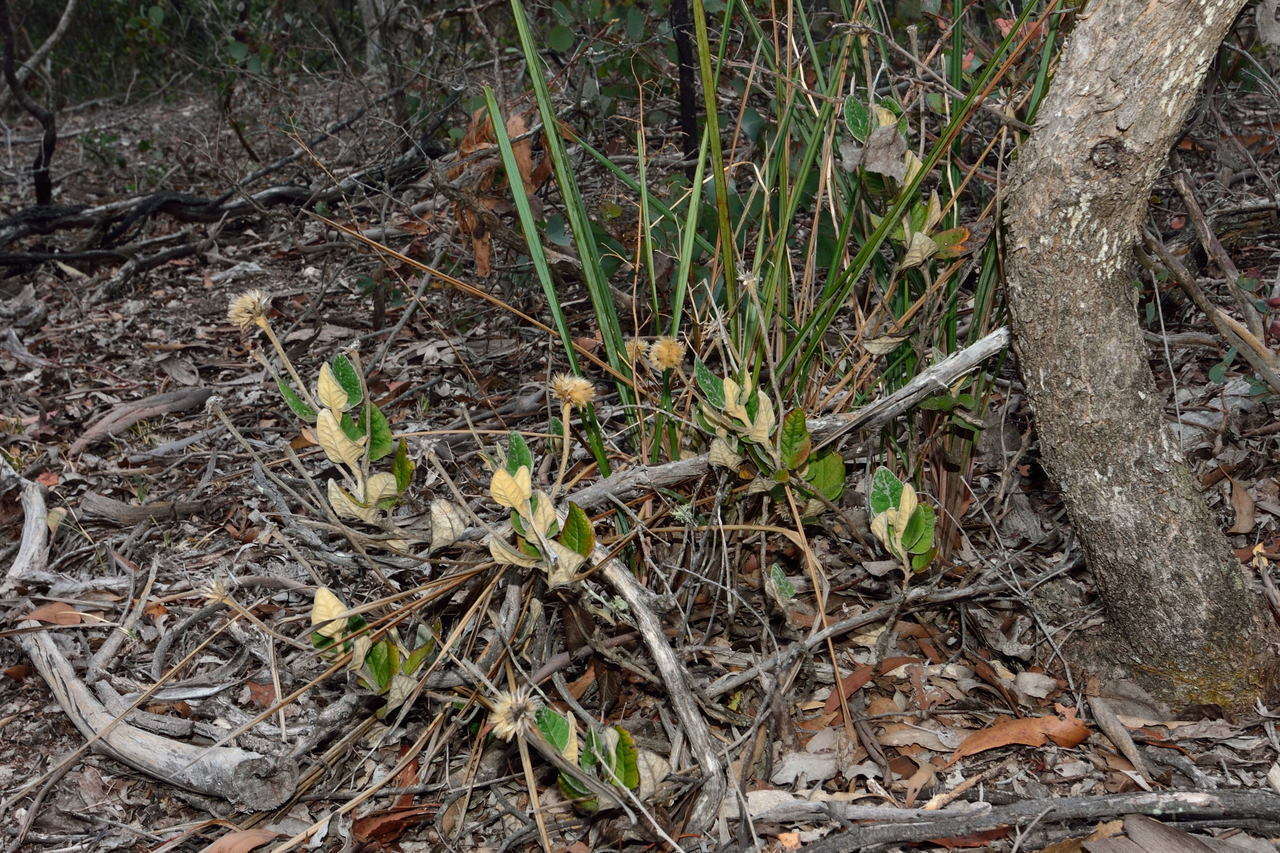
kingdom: Plantae
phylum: Tracheophyta
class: Magnoliopsida
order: Asterales
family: Asteraceae
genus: Olearia
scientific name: Olearia pannosa
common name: Velvet daisybush
